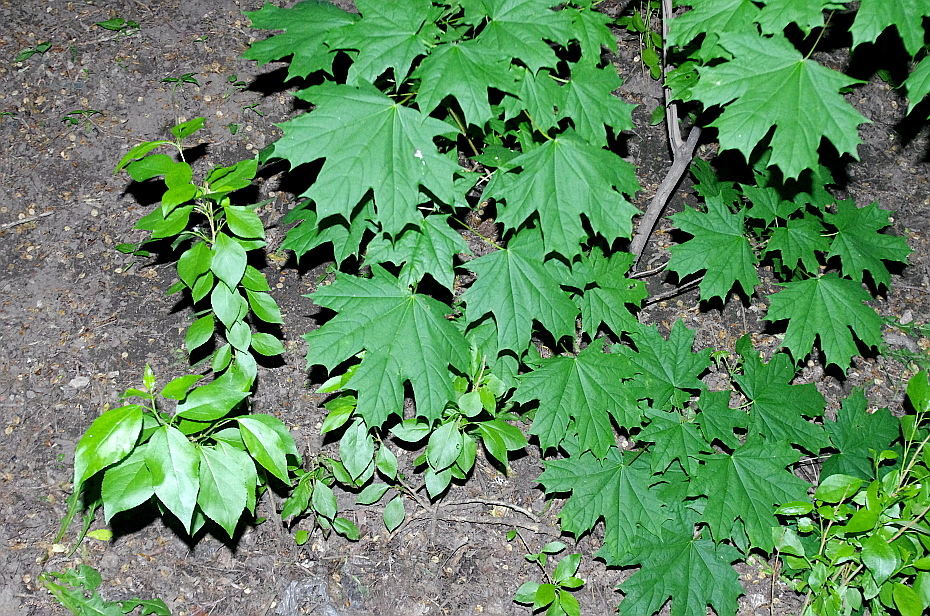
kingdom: Plantae
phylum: Tracheophyta
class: Magnoliopsida
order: Sapindales
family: Sapindaceae
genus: Acer
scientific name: Acer platanoides
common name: Norway maple
